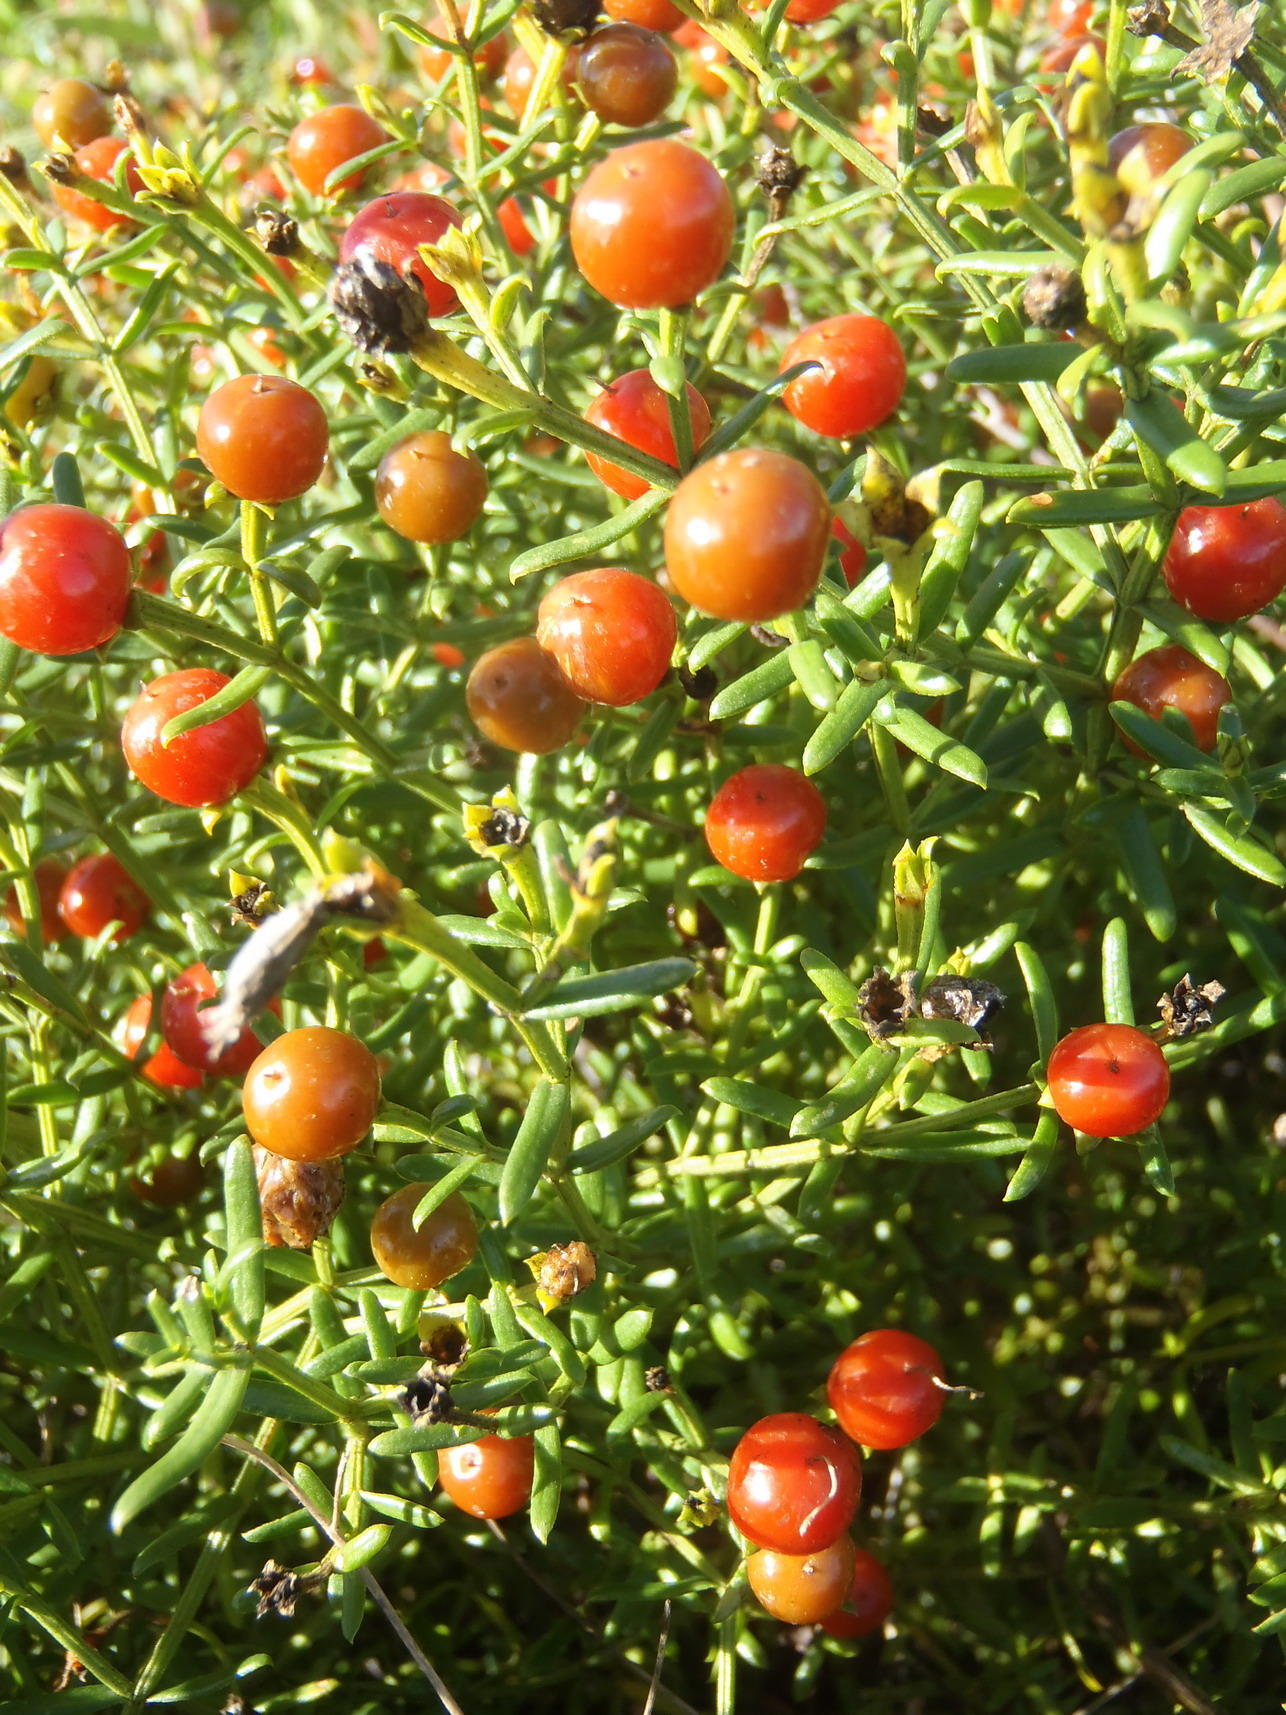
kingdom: Plantae
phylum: Tracheophyta
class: Magnoliopsida
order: Gentianales
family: Gentianaceae
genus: Chironia
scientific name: Chironia baccifera
